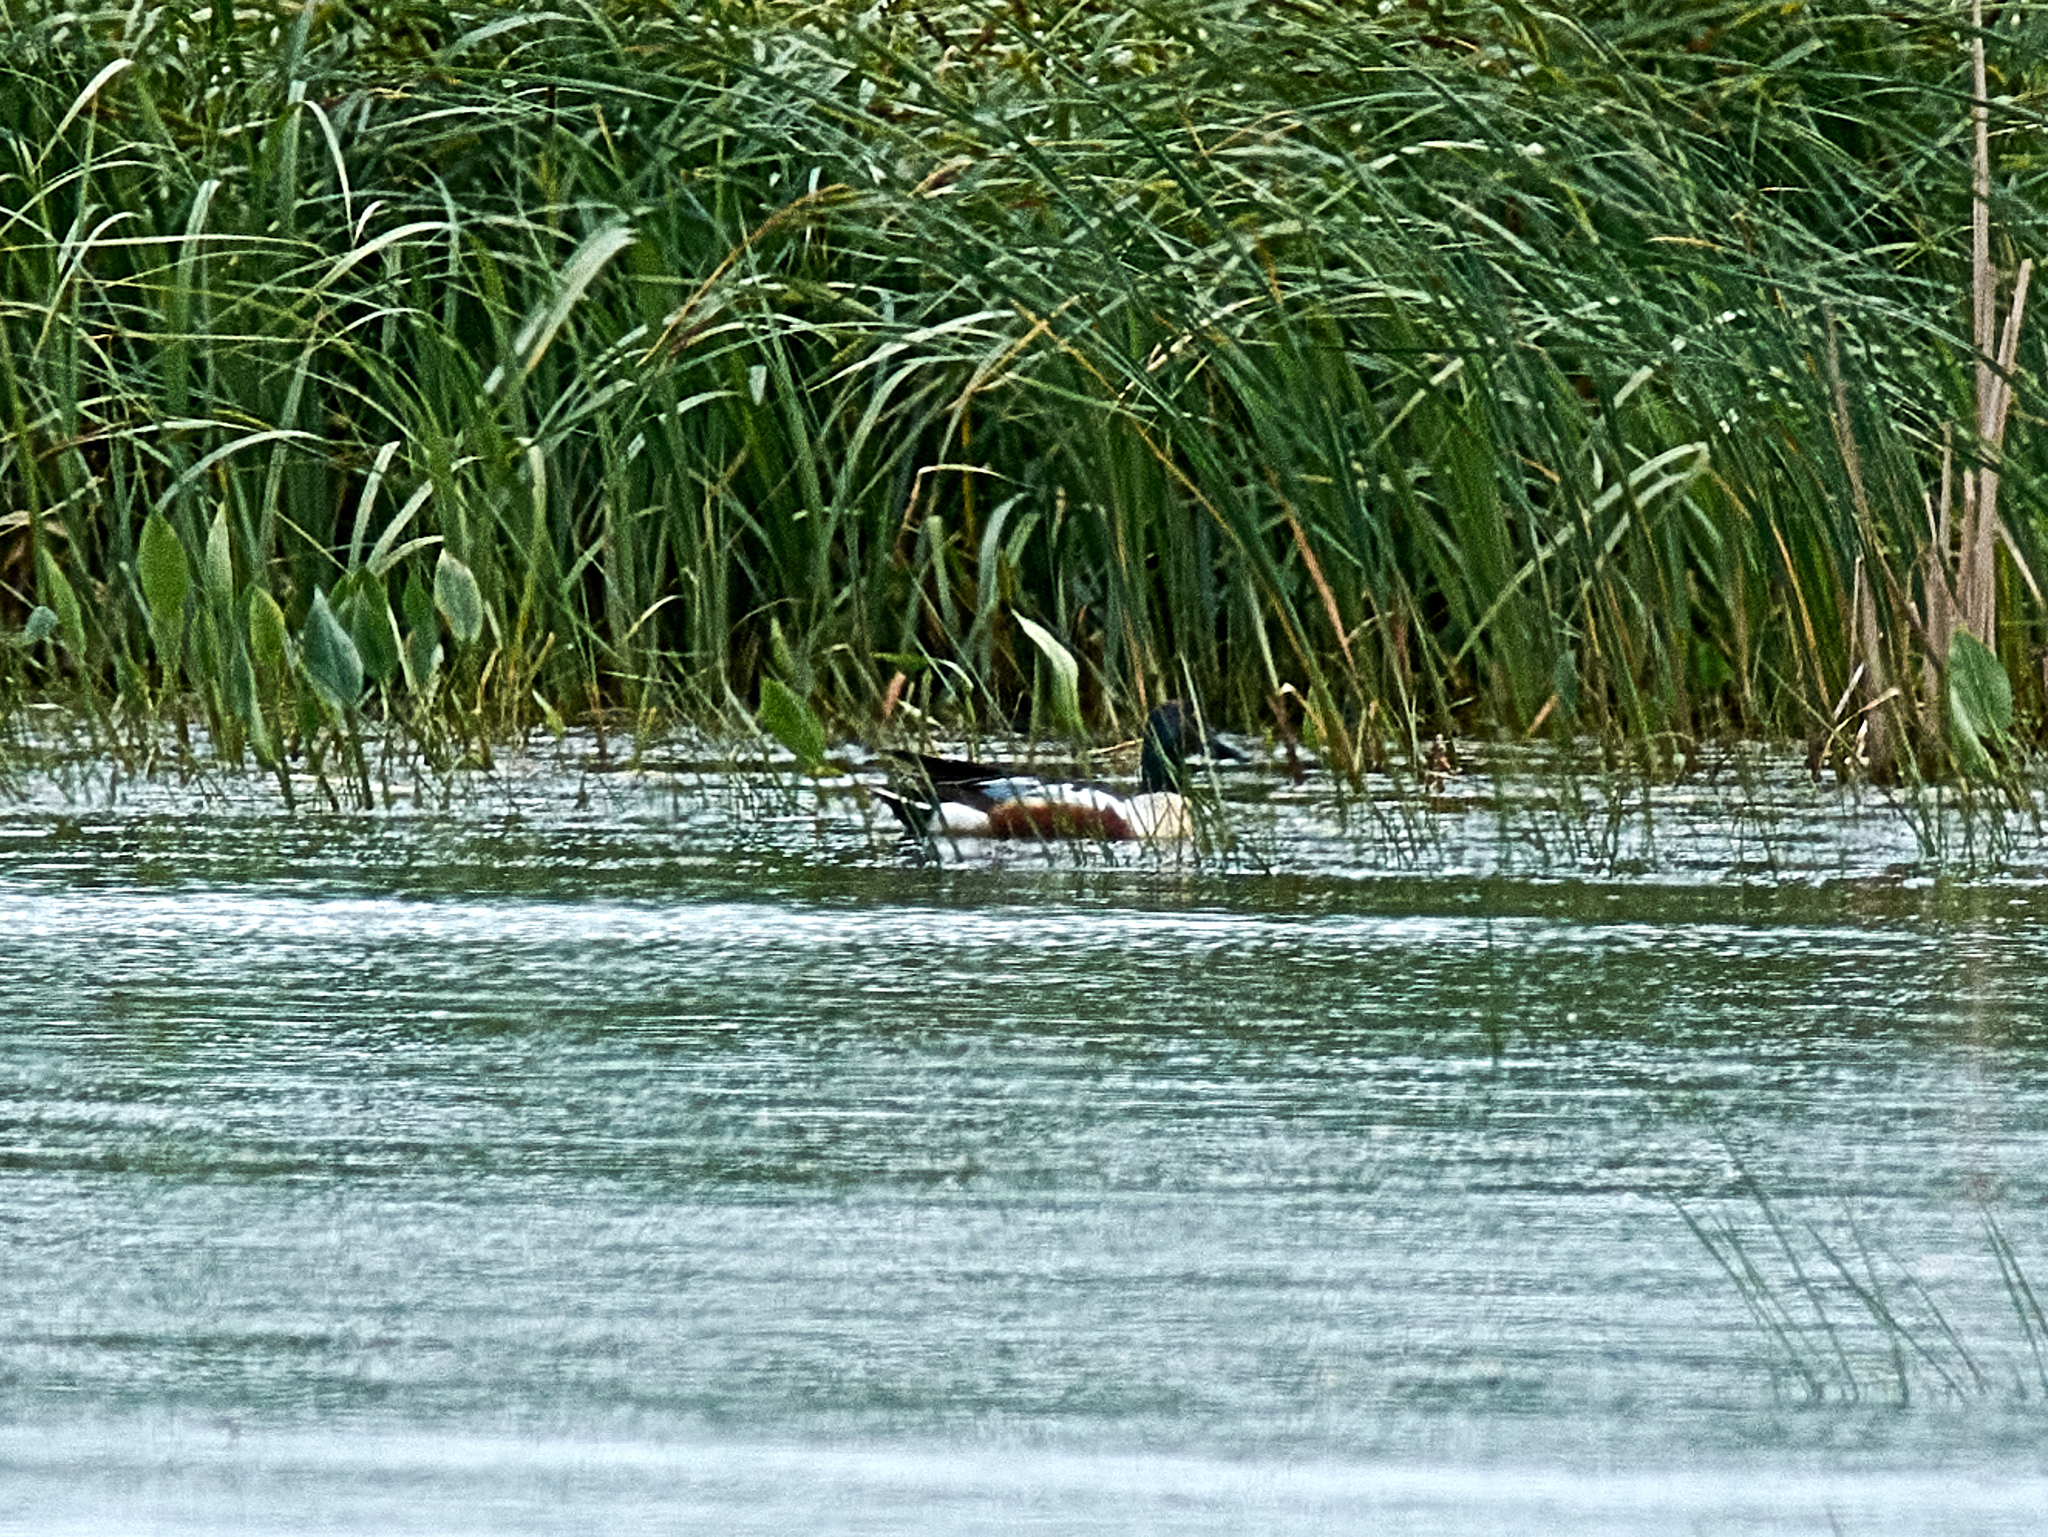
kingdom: Animalia
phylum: Chordata
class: Aves
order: Anseriformes
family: Anatidae
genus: Spatula
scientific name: Spatula clypeata
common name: Northern shoveler
